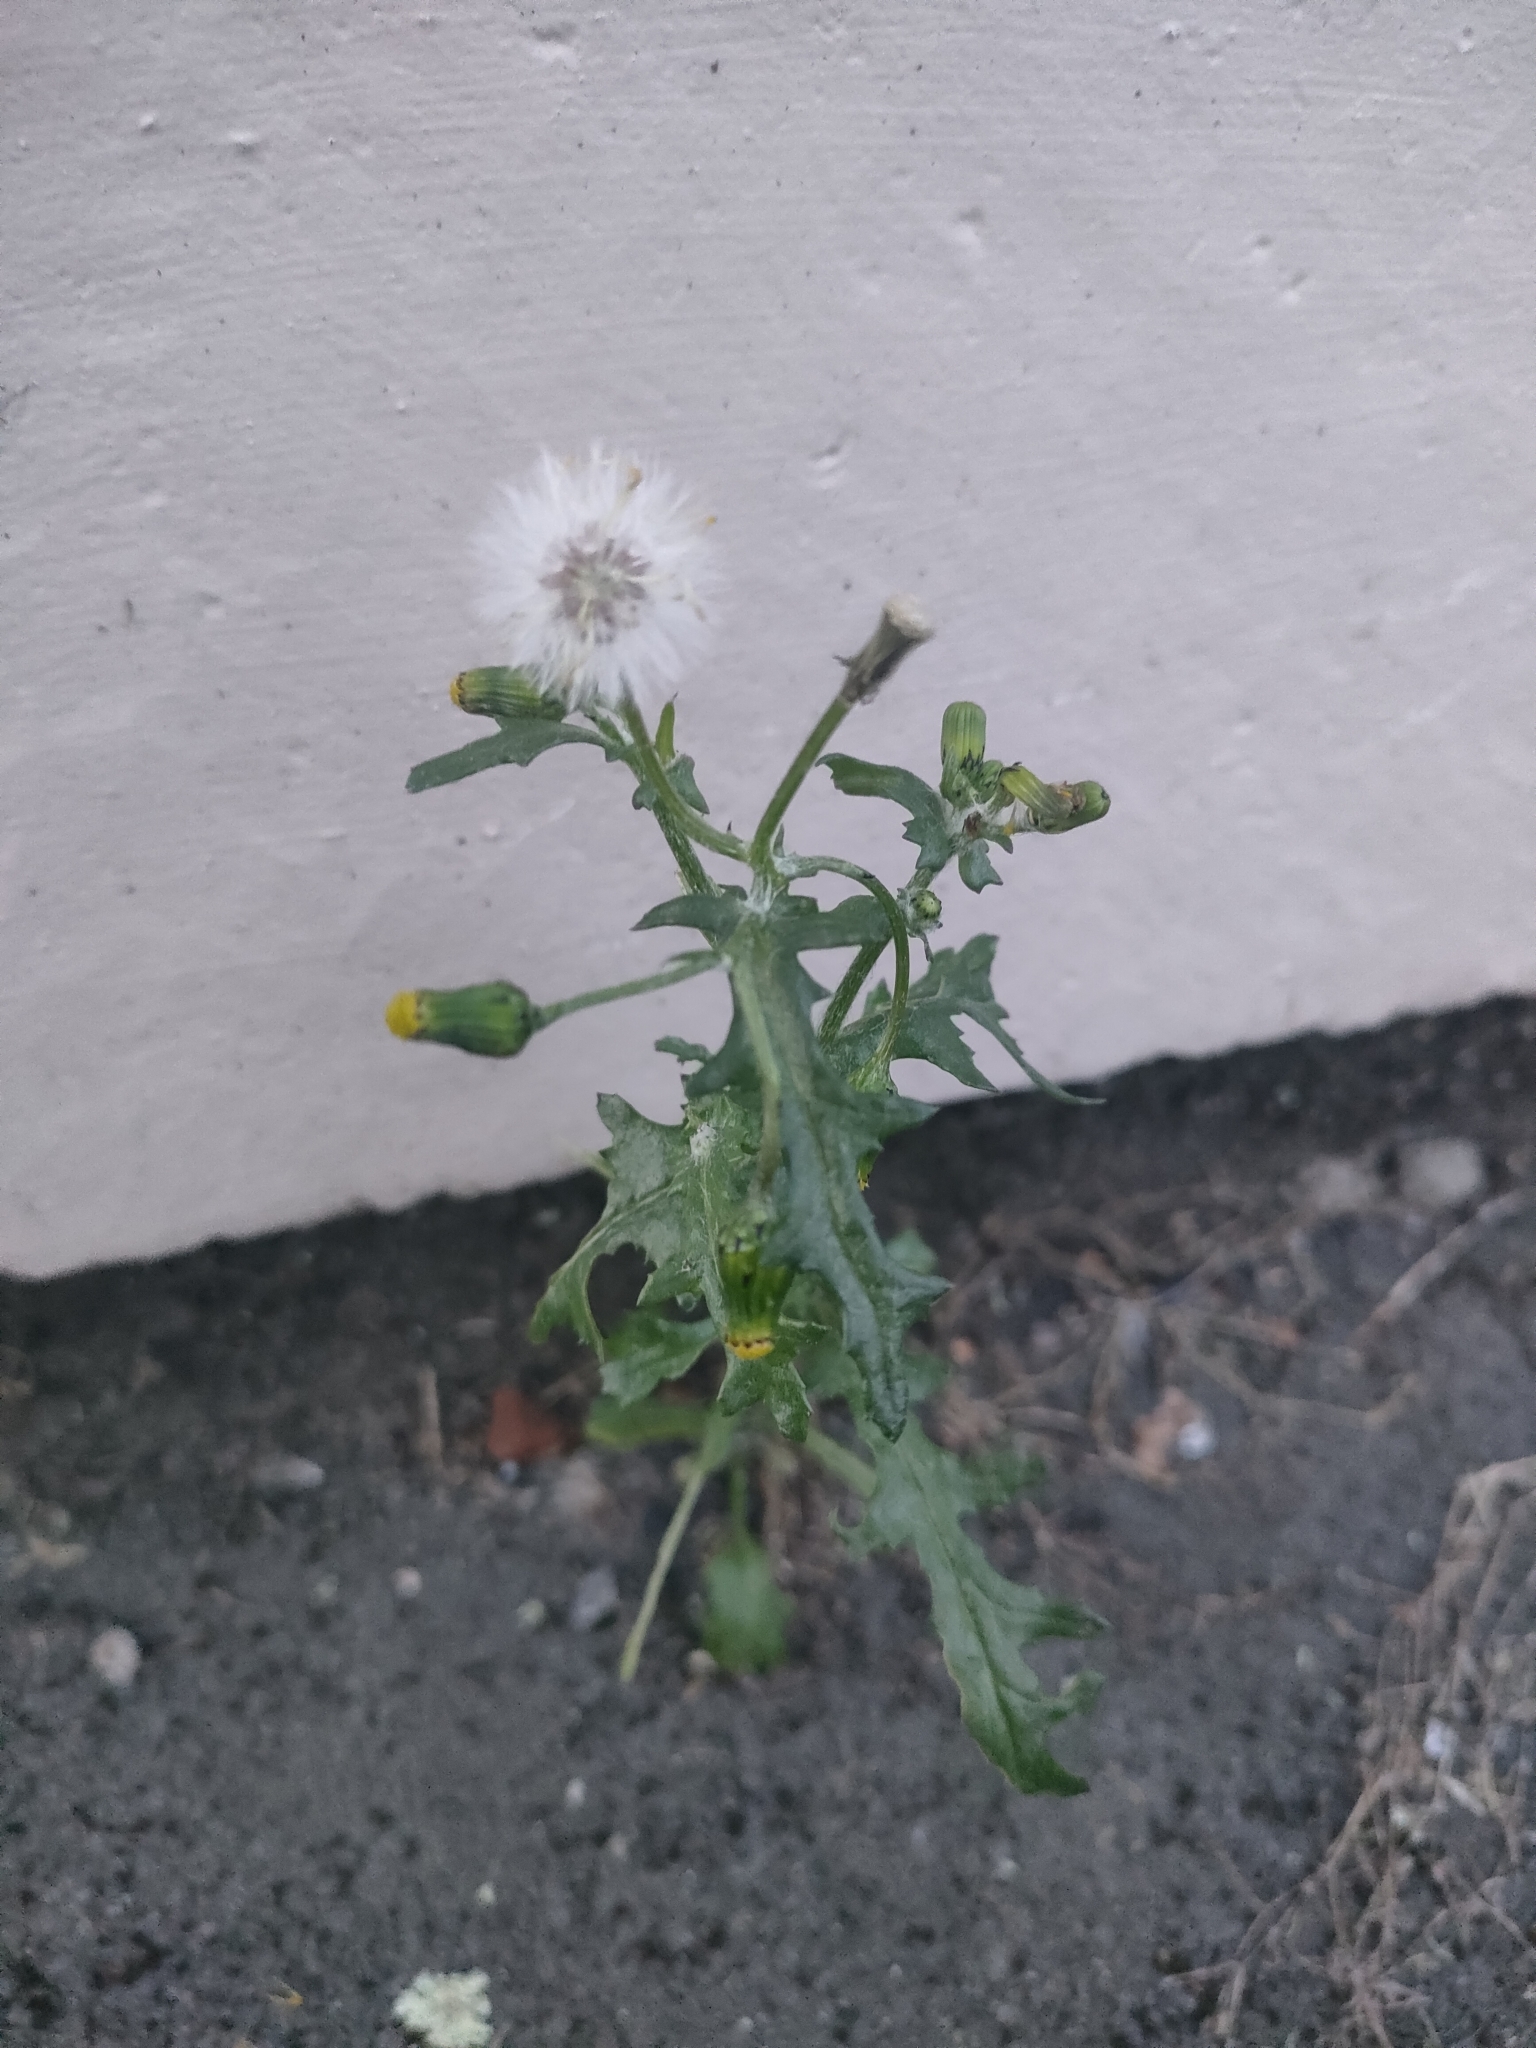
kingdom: Plantae
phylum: Tracheophyta
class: Magnoliopsida
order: Asterales
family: Asteraceae
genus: Senecio
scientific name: Senecio vulgaris
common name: Old-man-in-the-spring
